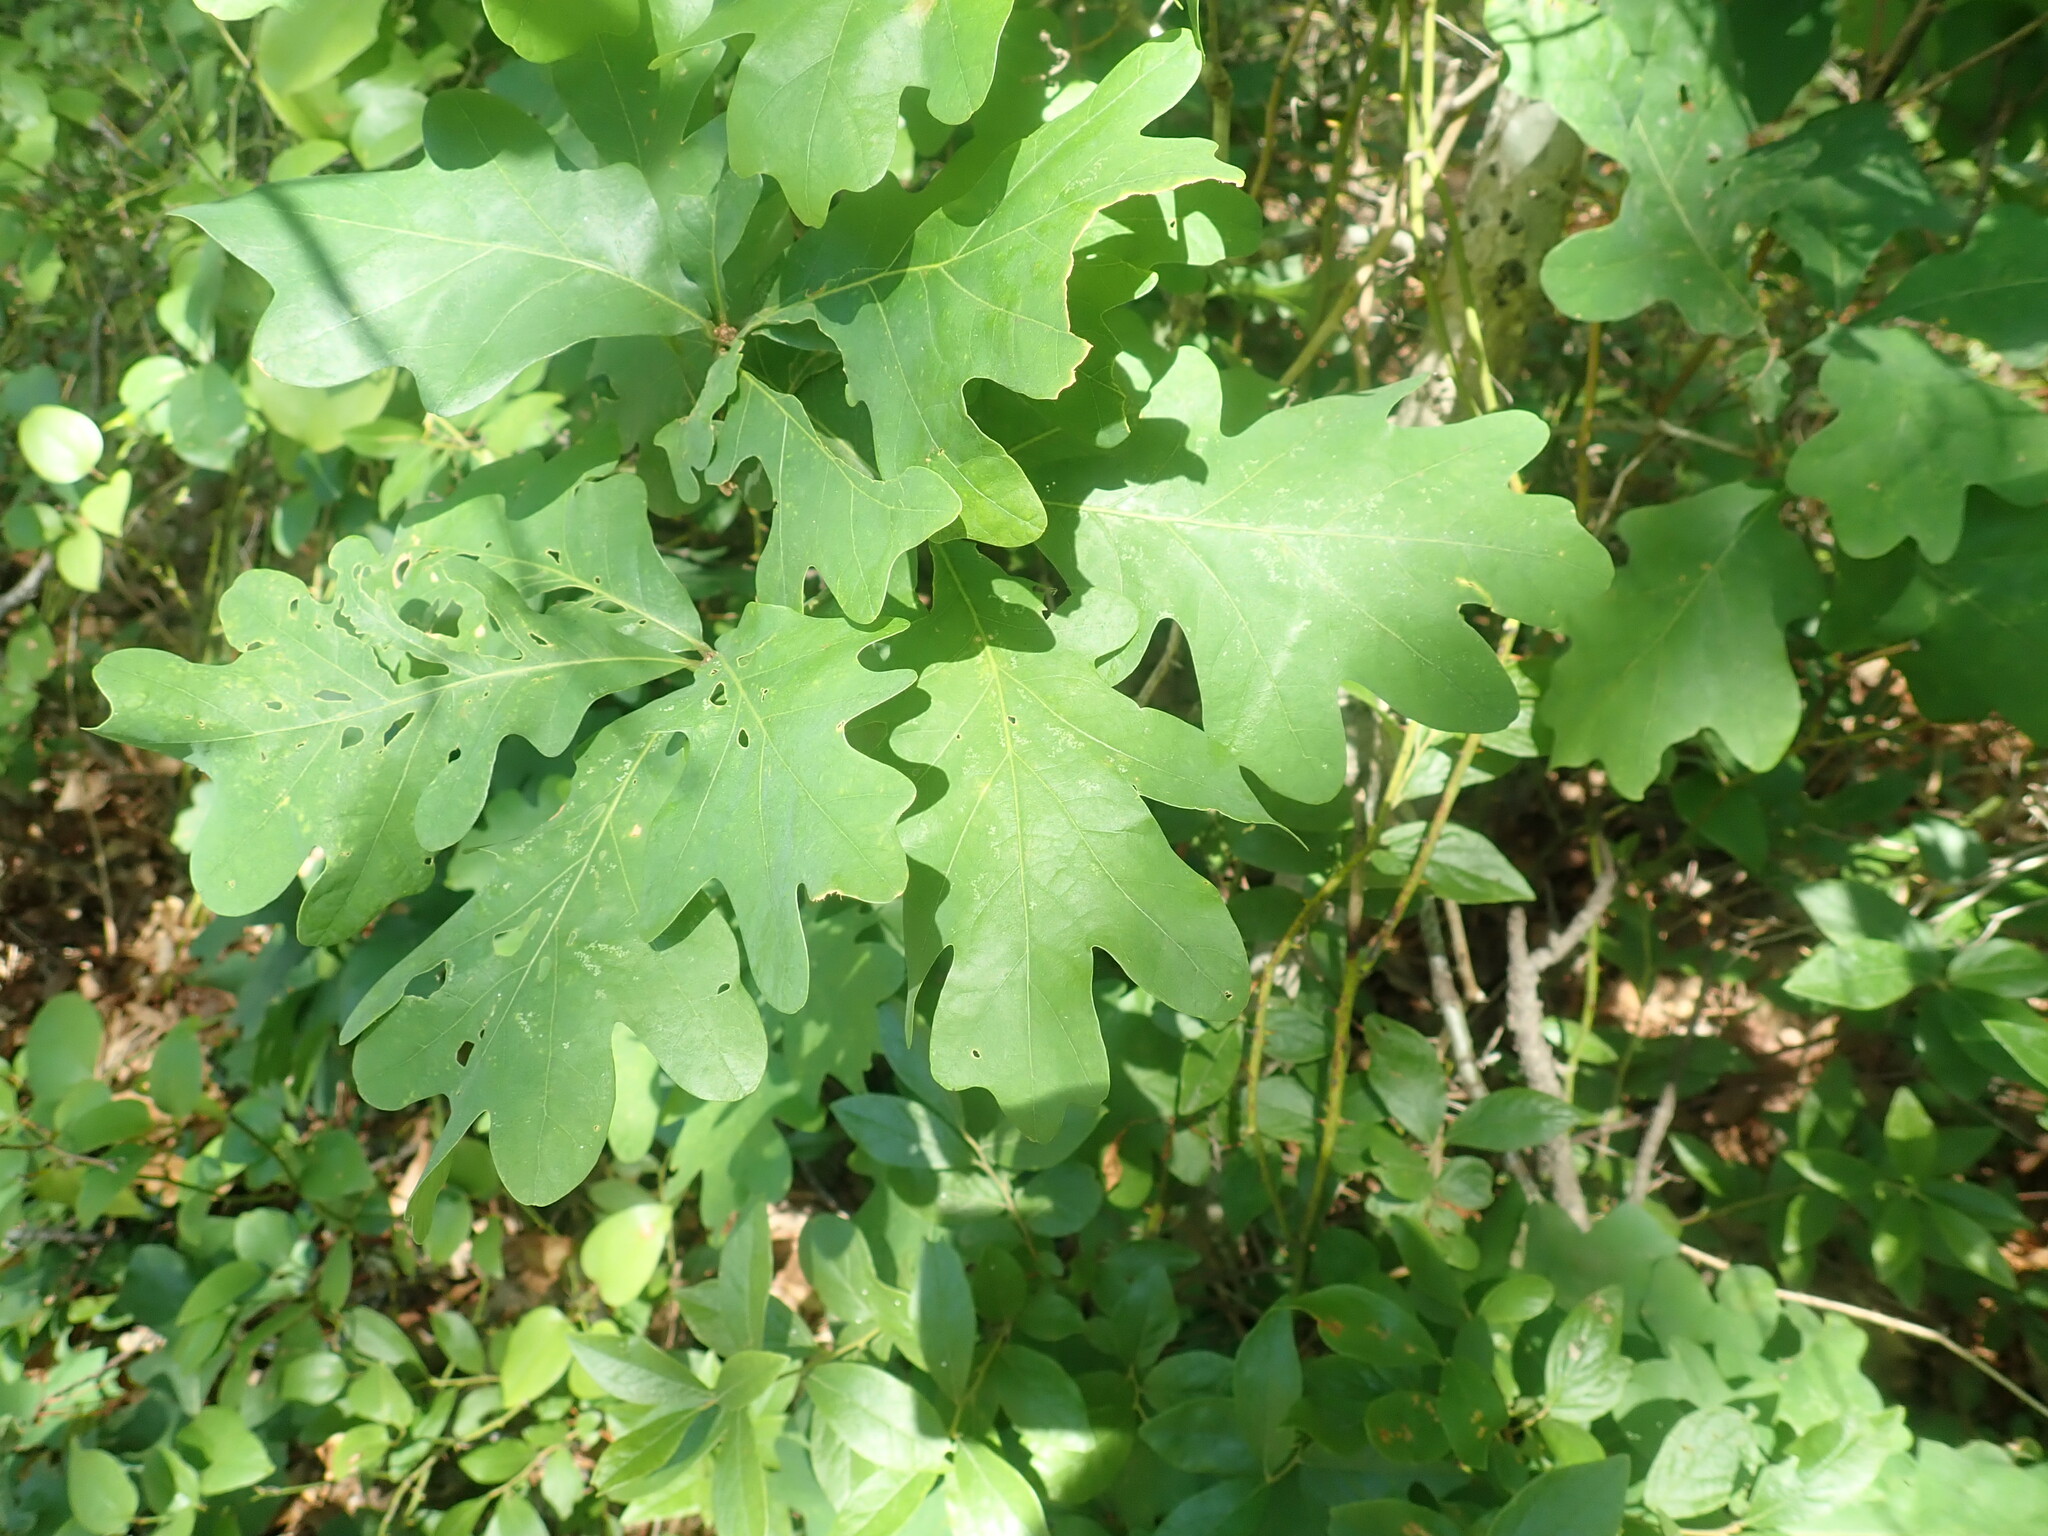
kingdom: Plantae
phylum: Tracheophyta
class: Magnoliopsida
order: Fagales
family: Fagaceae
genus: Quercus
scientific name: Quercus alba
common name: White oak
